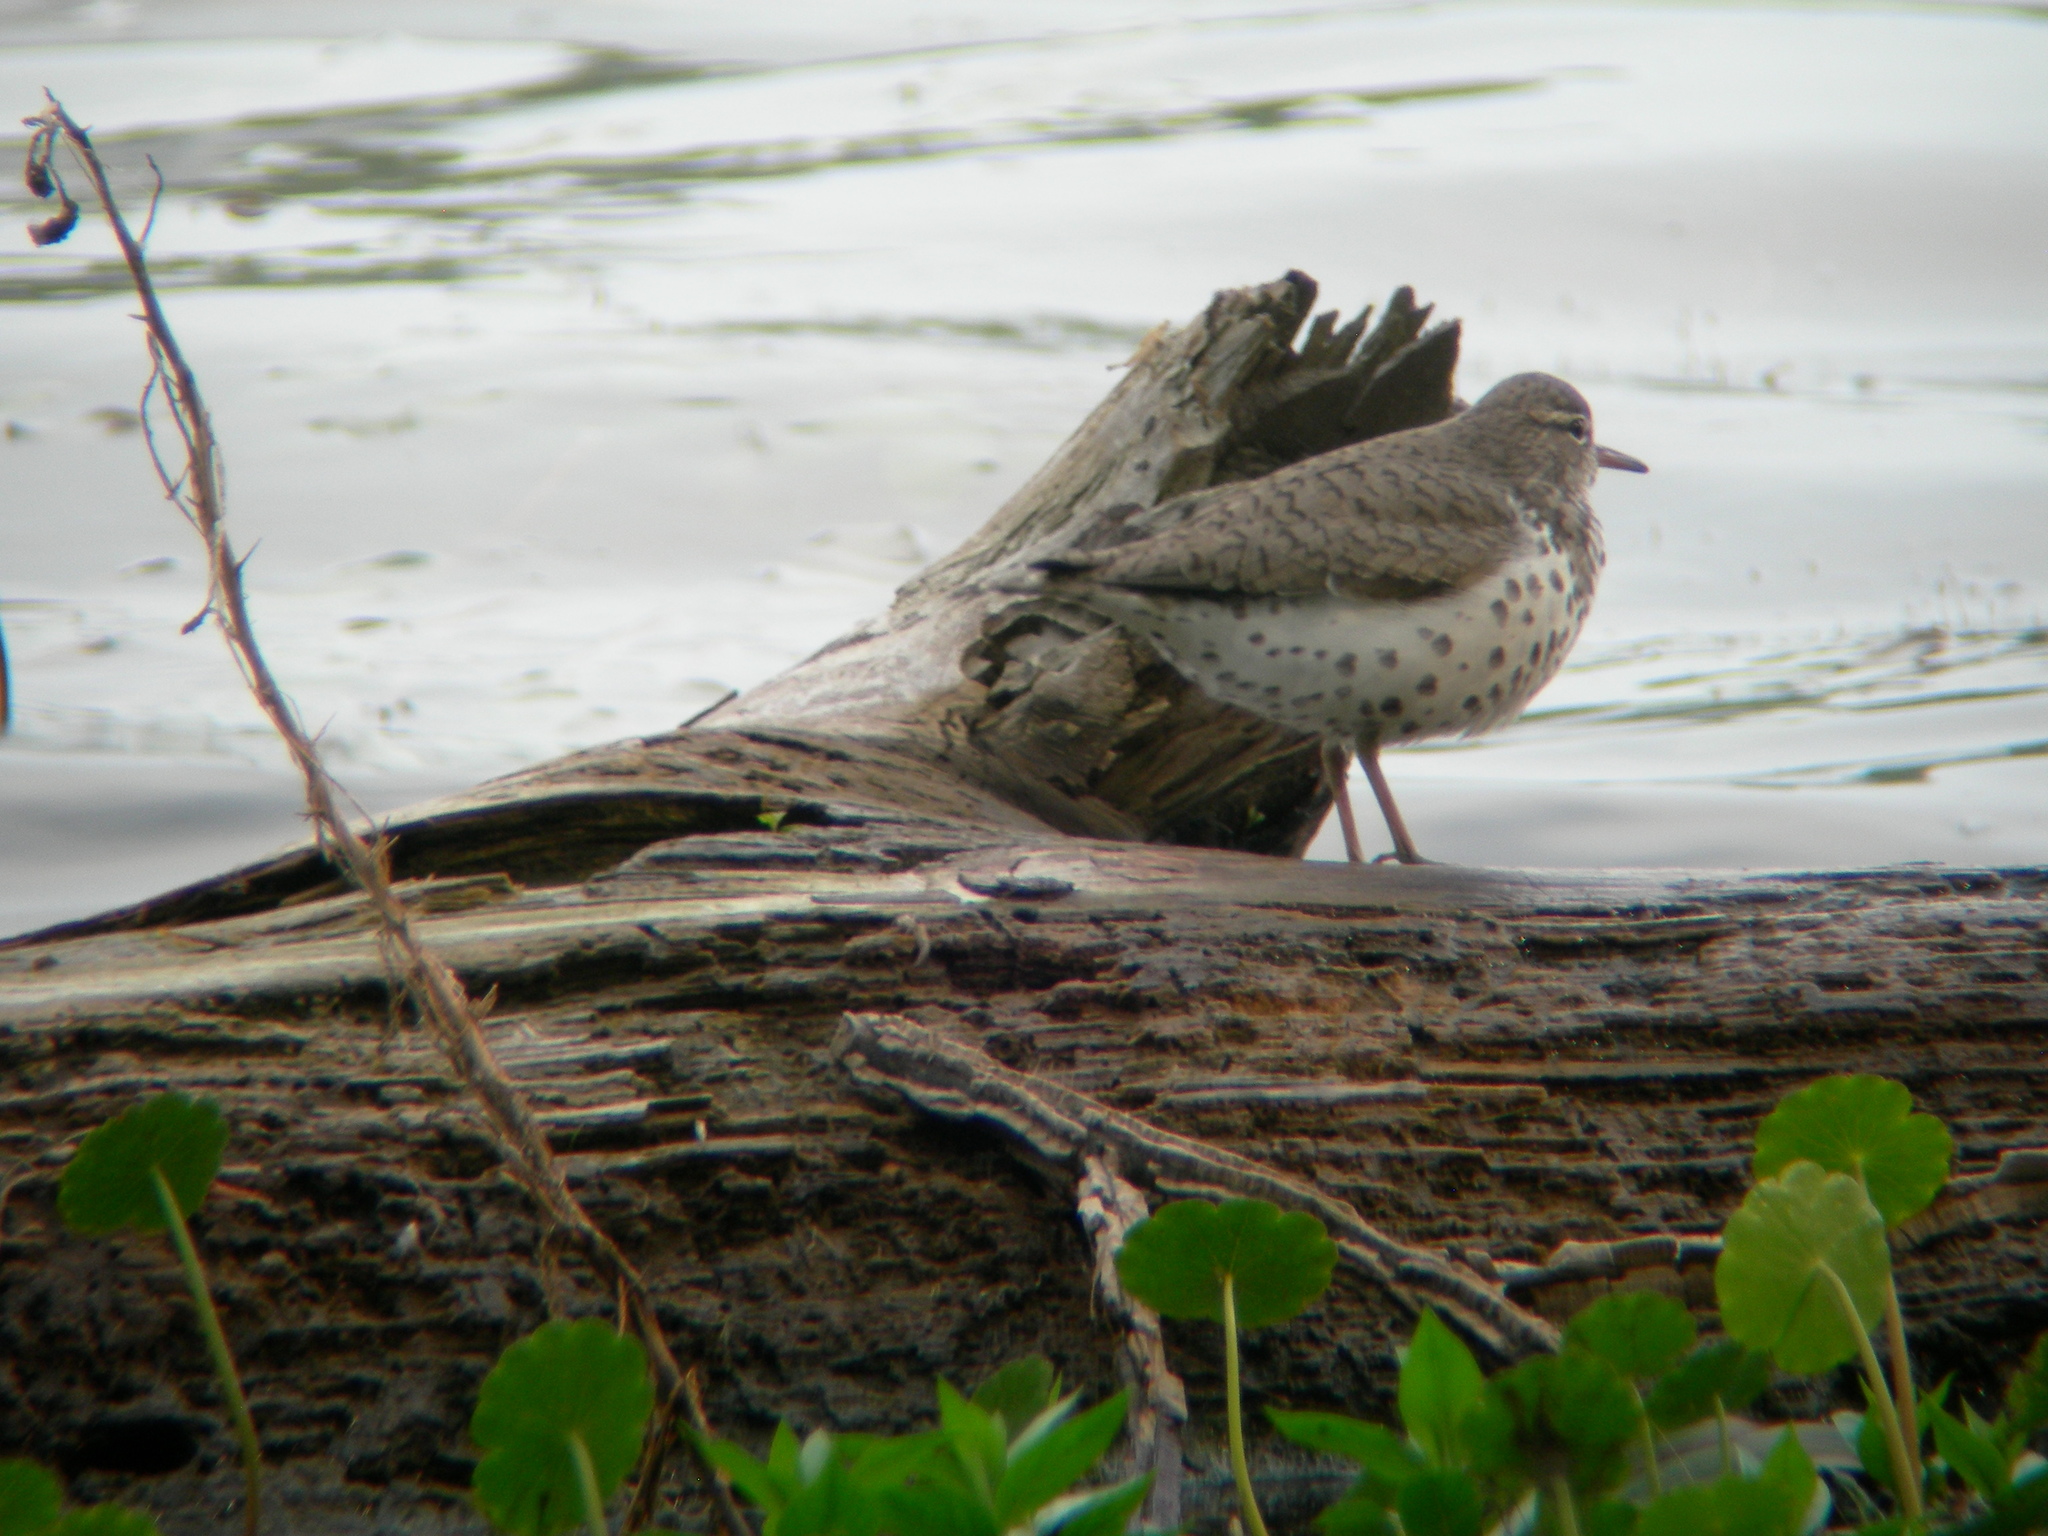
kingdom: Animalia
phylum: Chordata
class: Aves
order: Charadriiformes
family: Scolopacidae
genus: Actitis
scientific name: Actitis macularius
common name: Spotted sandpiper
